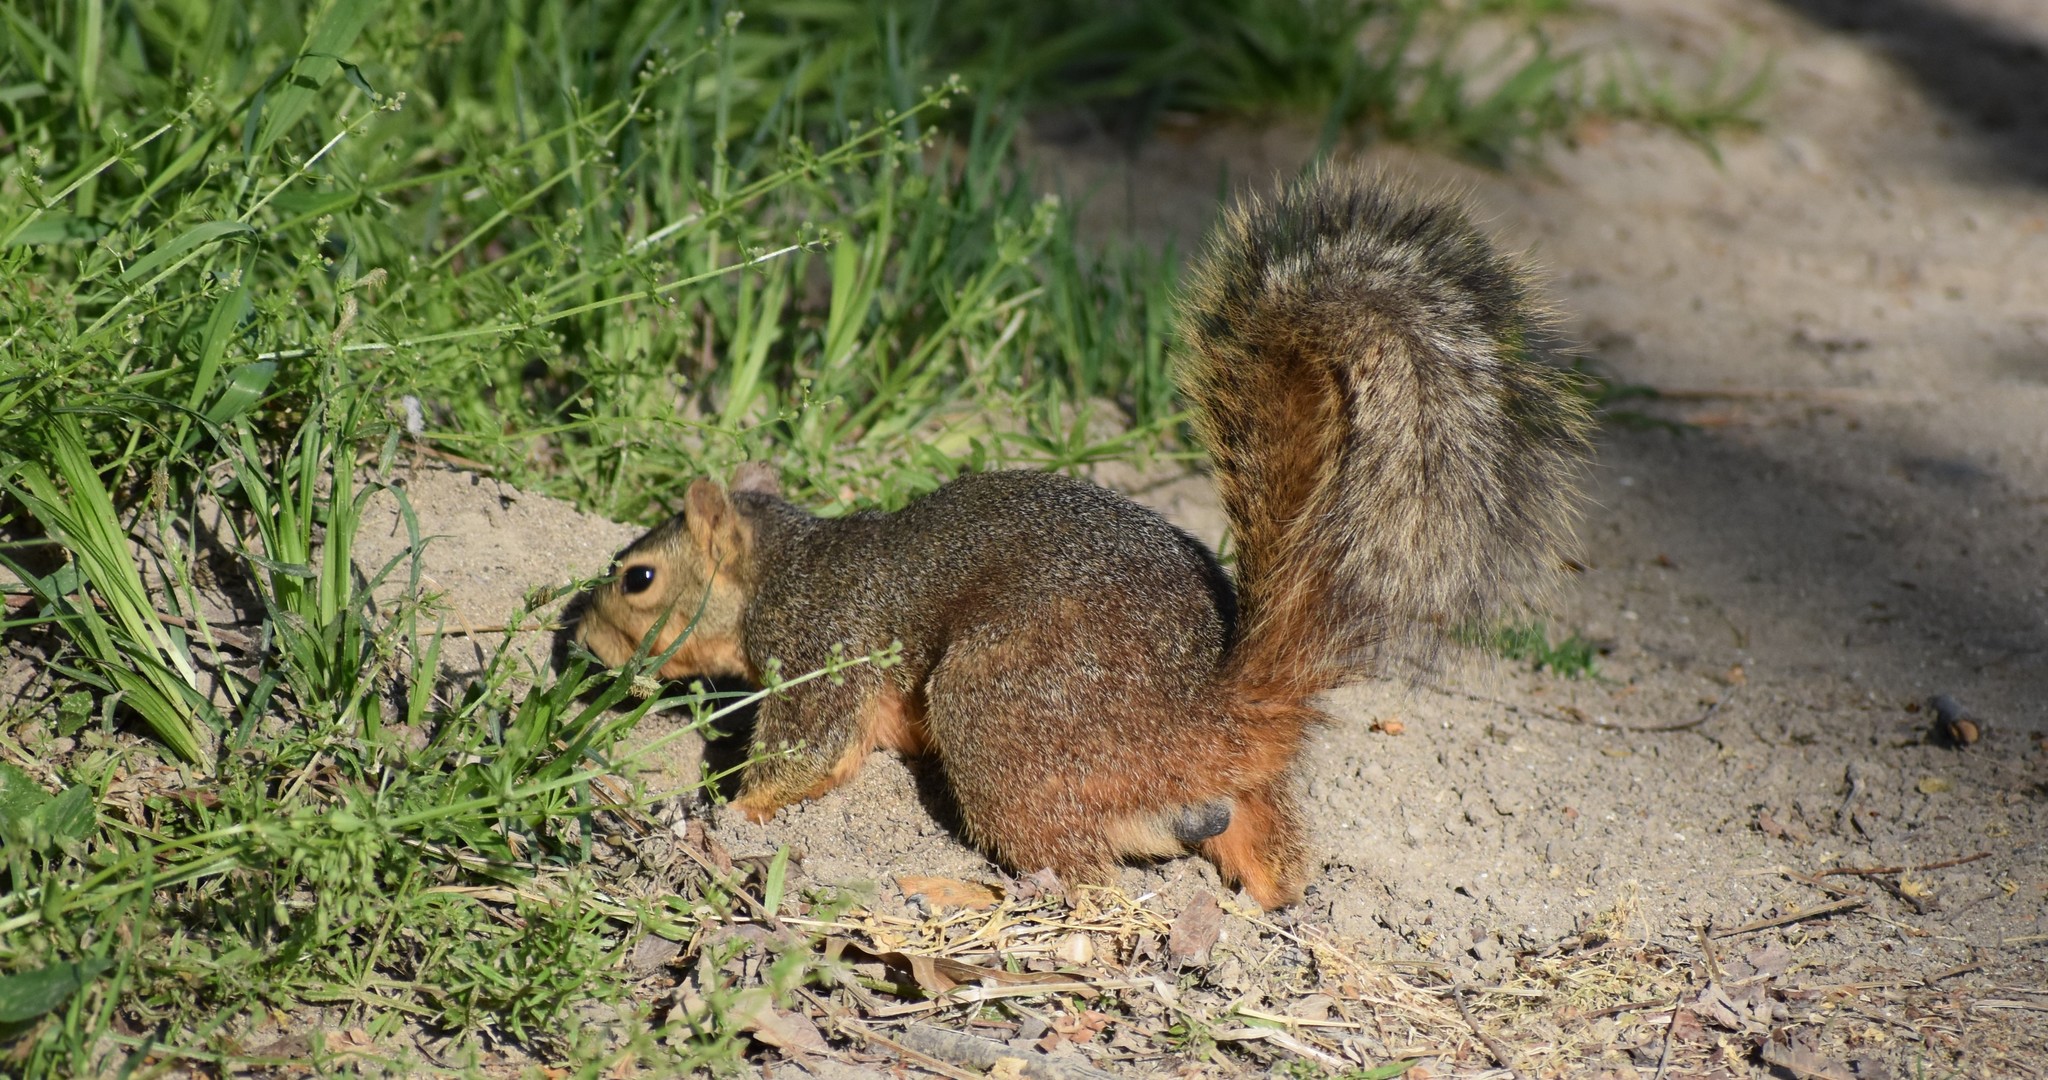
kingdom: Animalia
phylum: Chordata
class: Mammalia
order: Rodentia
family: Sciuridae
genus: Sciurus
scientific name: Sciurus niger
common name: Fox squirrel
